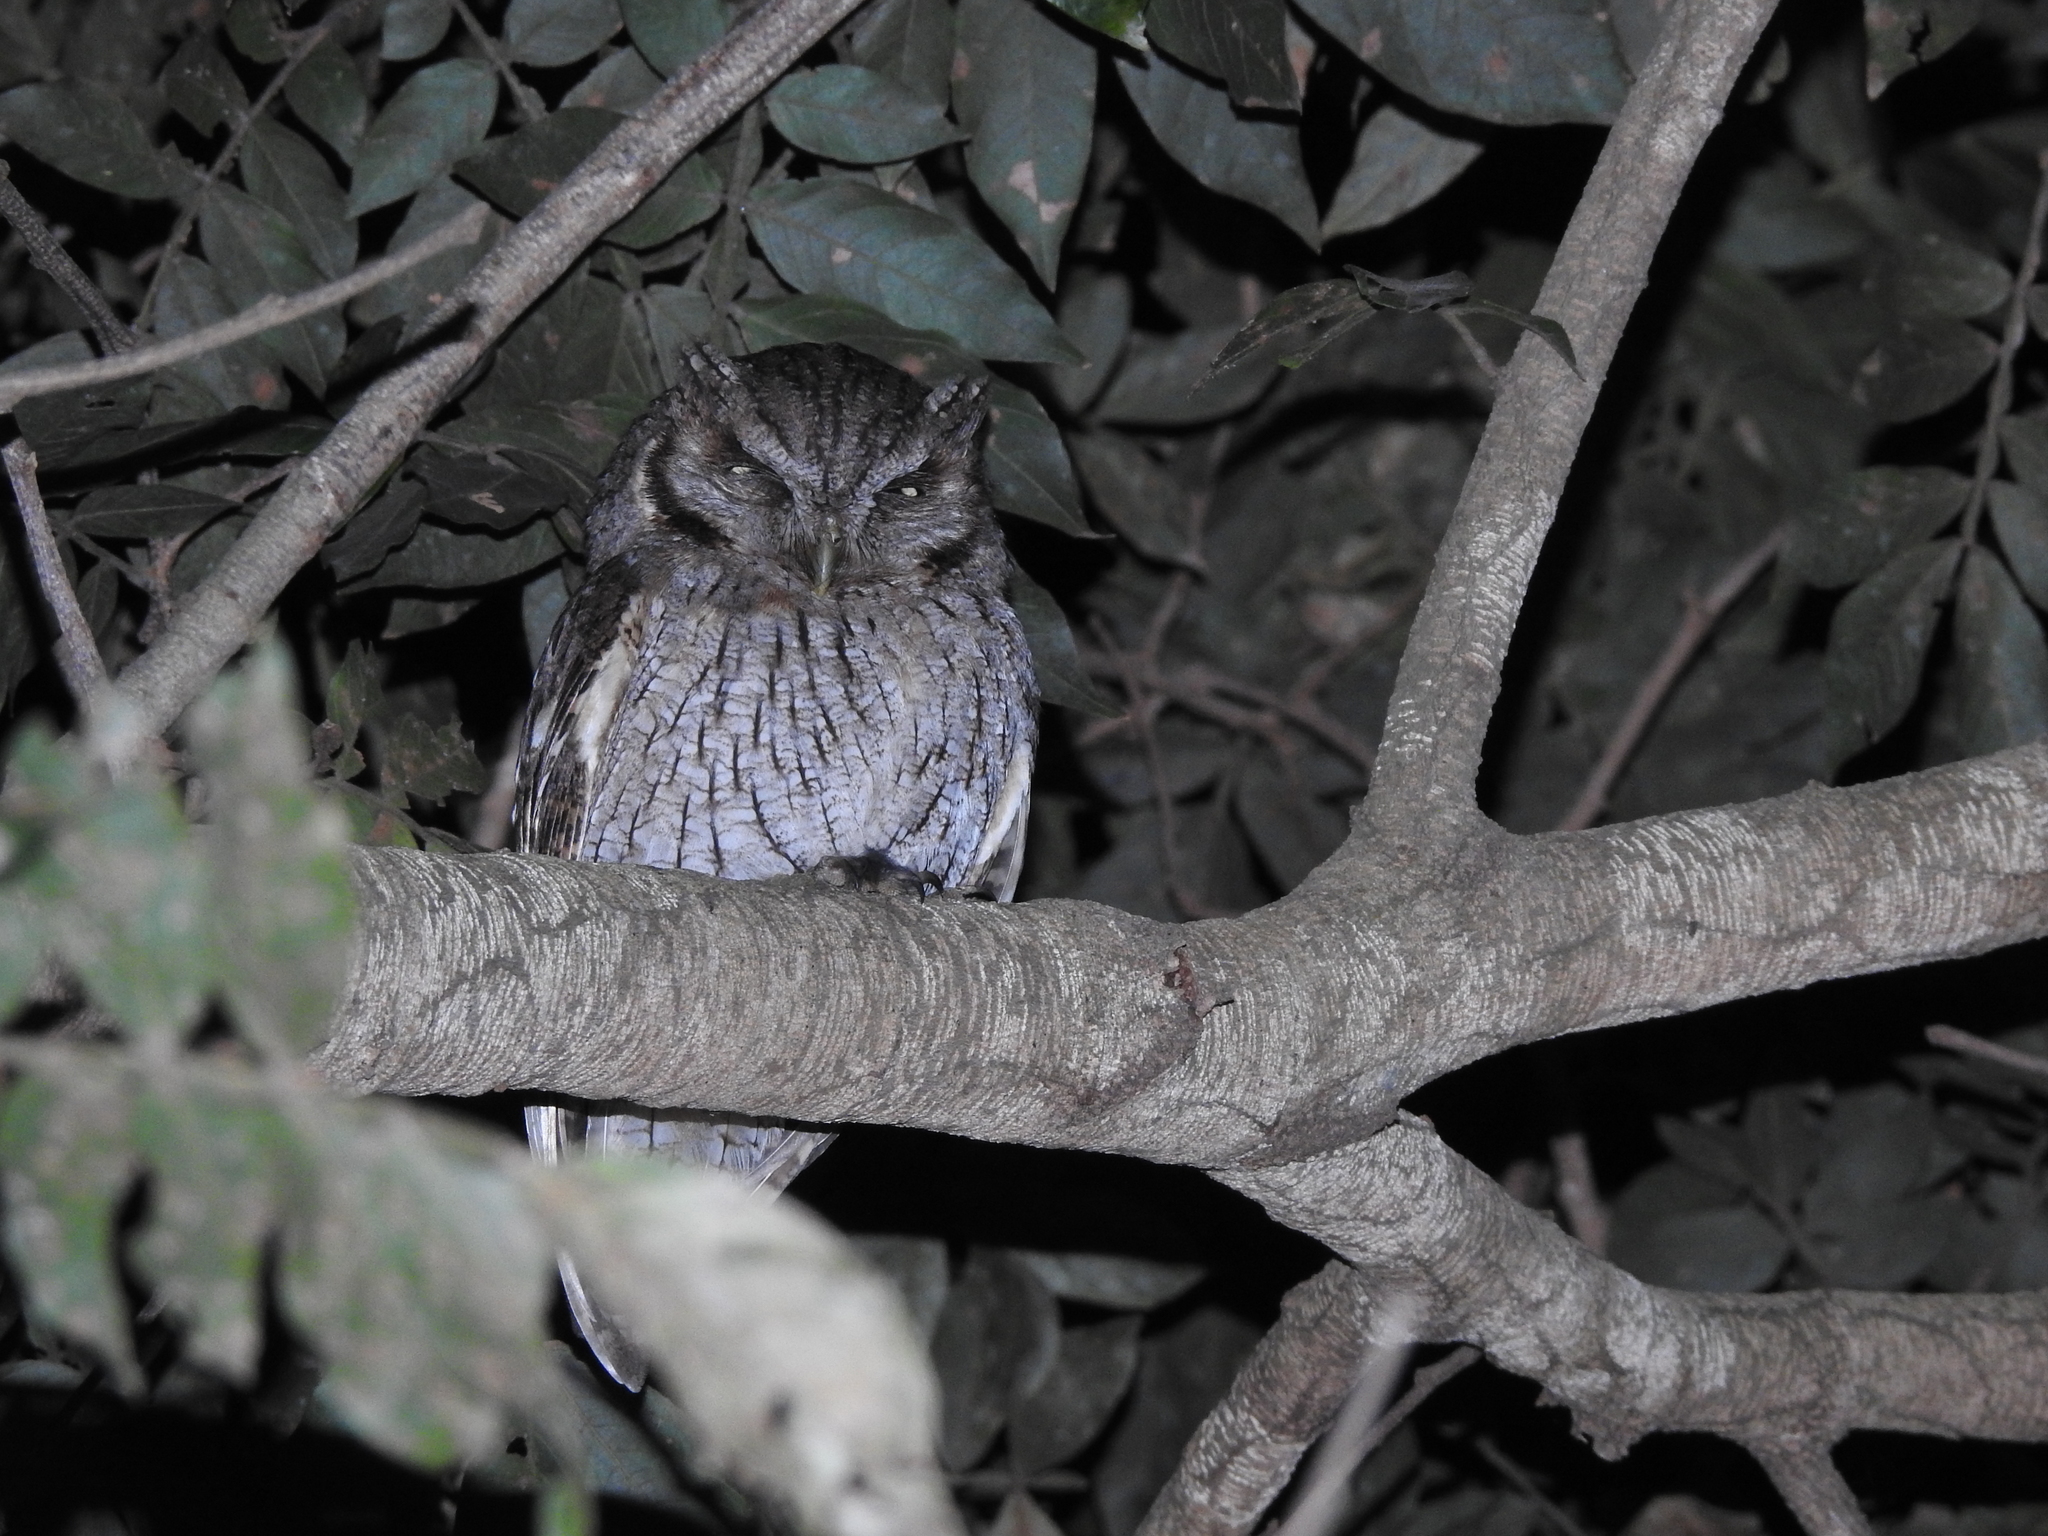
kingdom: Animalia
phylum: Chordata
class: Aves
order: Strigiformes
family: Strigidae
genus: Megascops
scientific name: Megascops choliba
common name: Tropical screech-owl
